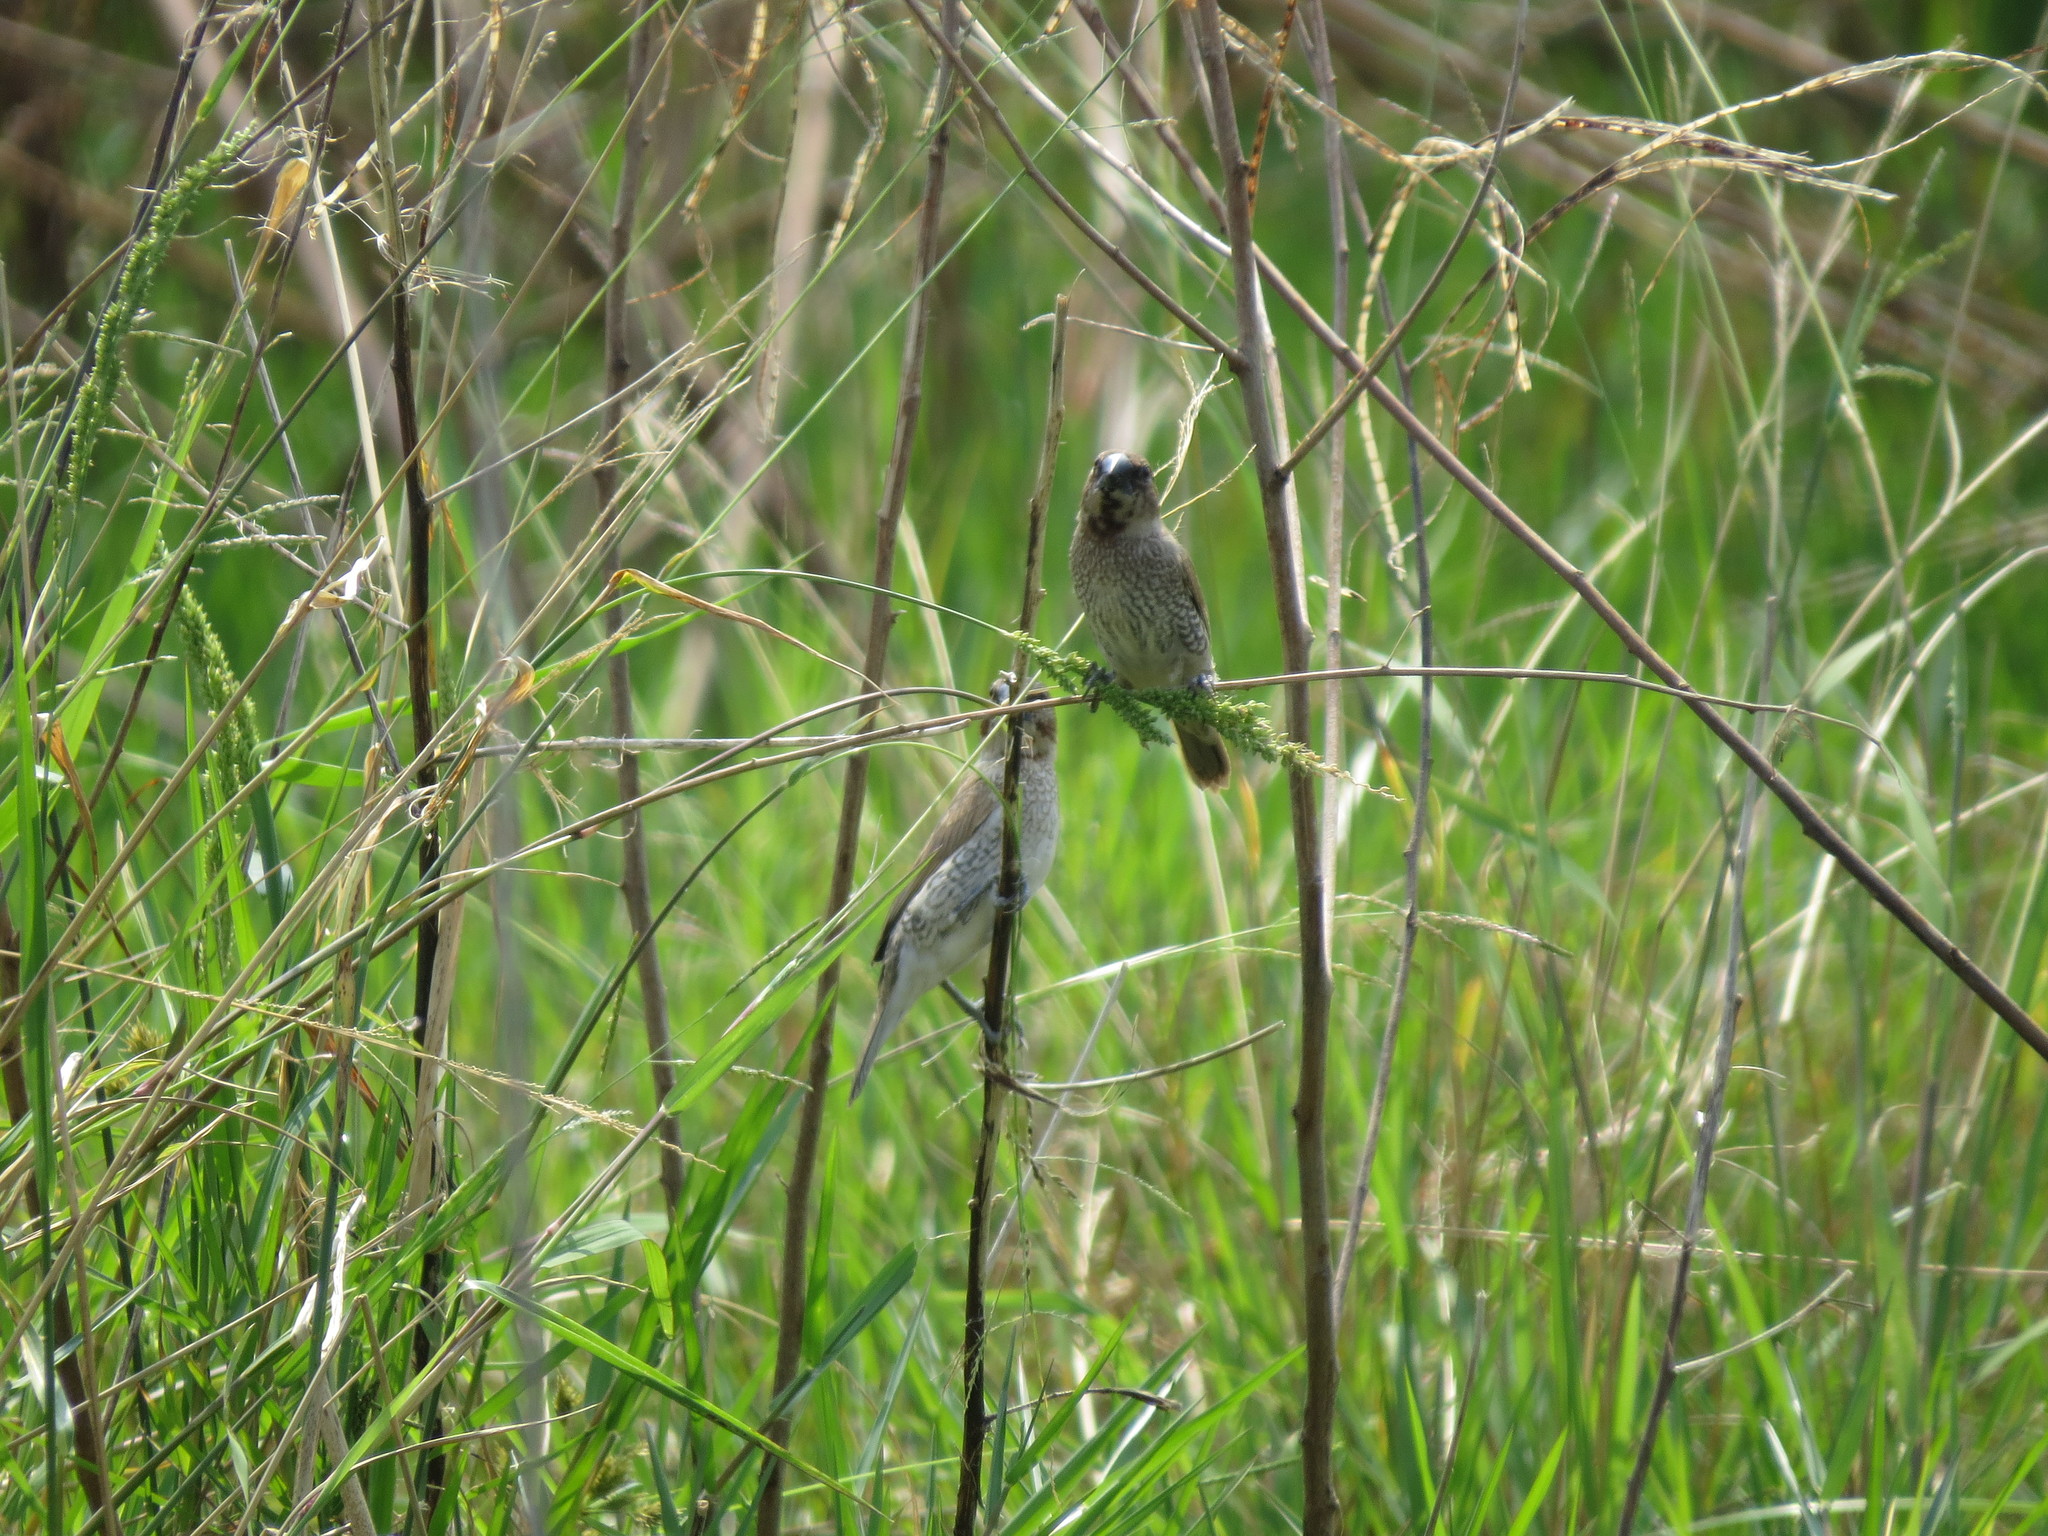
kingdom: Animalia
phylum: Chordata
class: Aves
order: Passeriformes
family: Estrildidae
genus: Lonchura
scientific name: Lonchura punctulata
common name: Scaly-breasted munia
